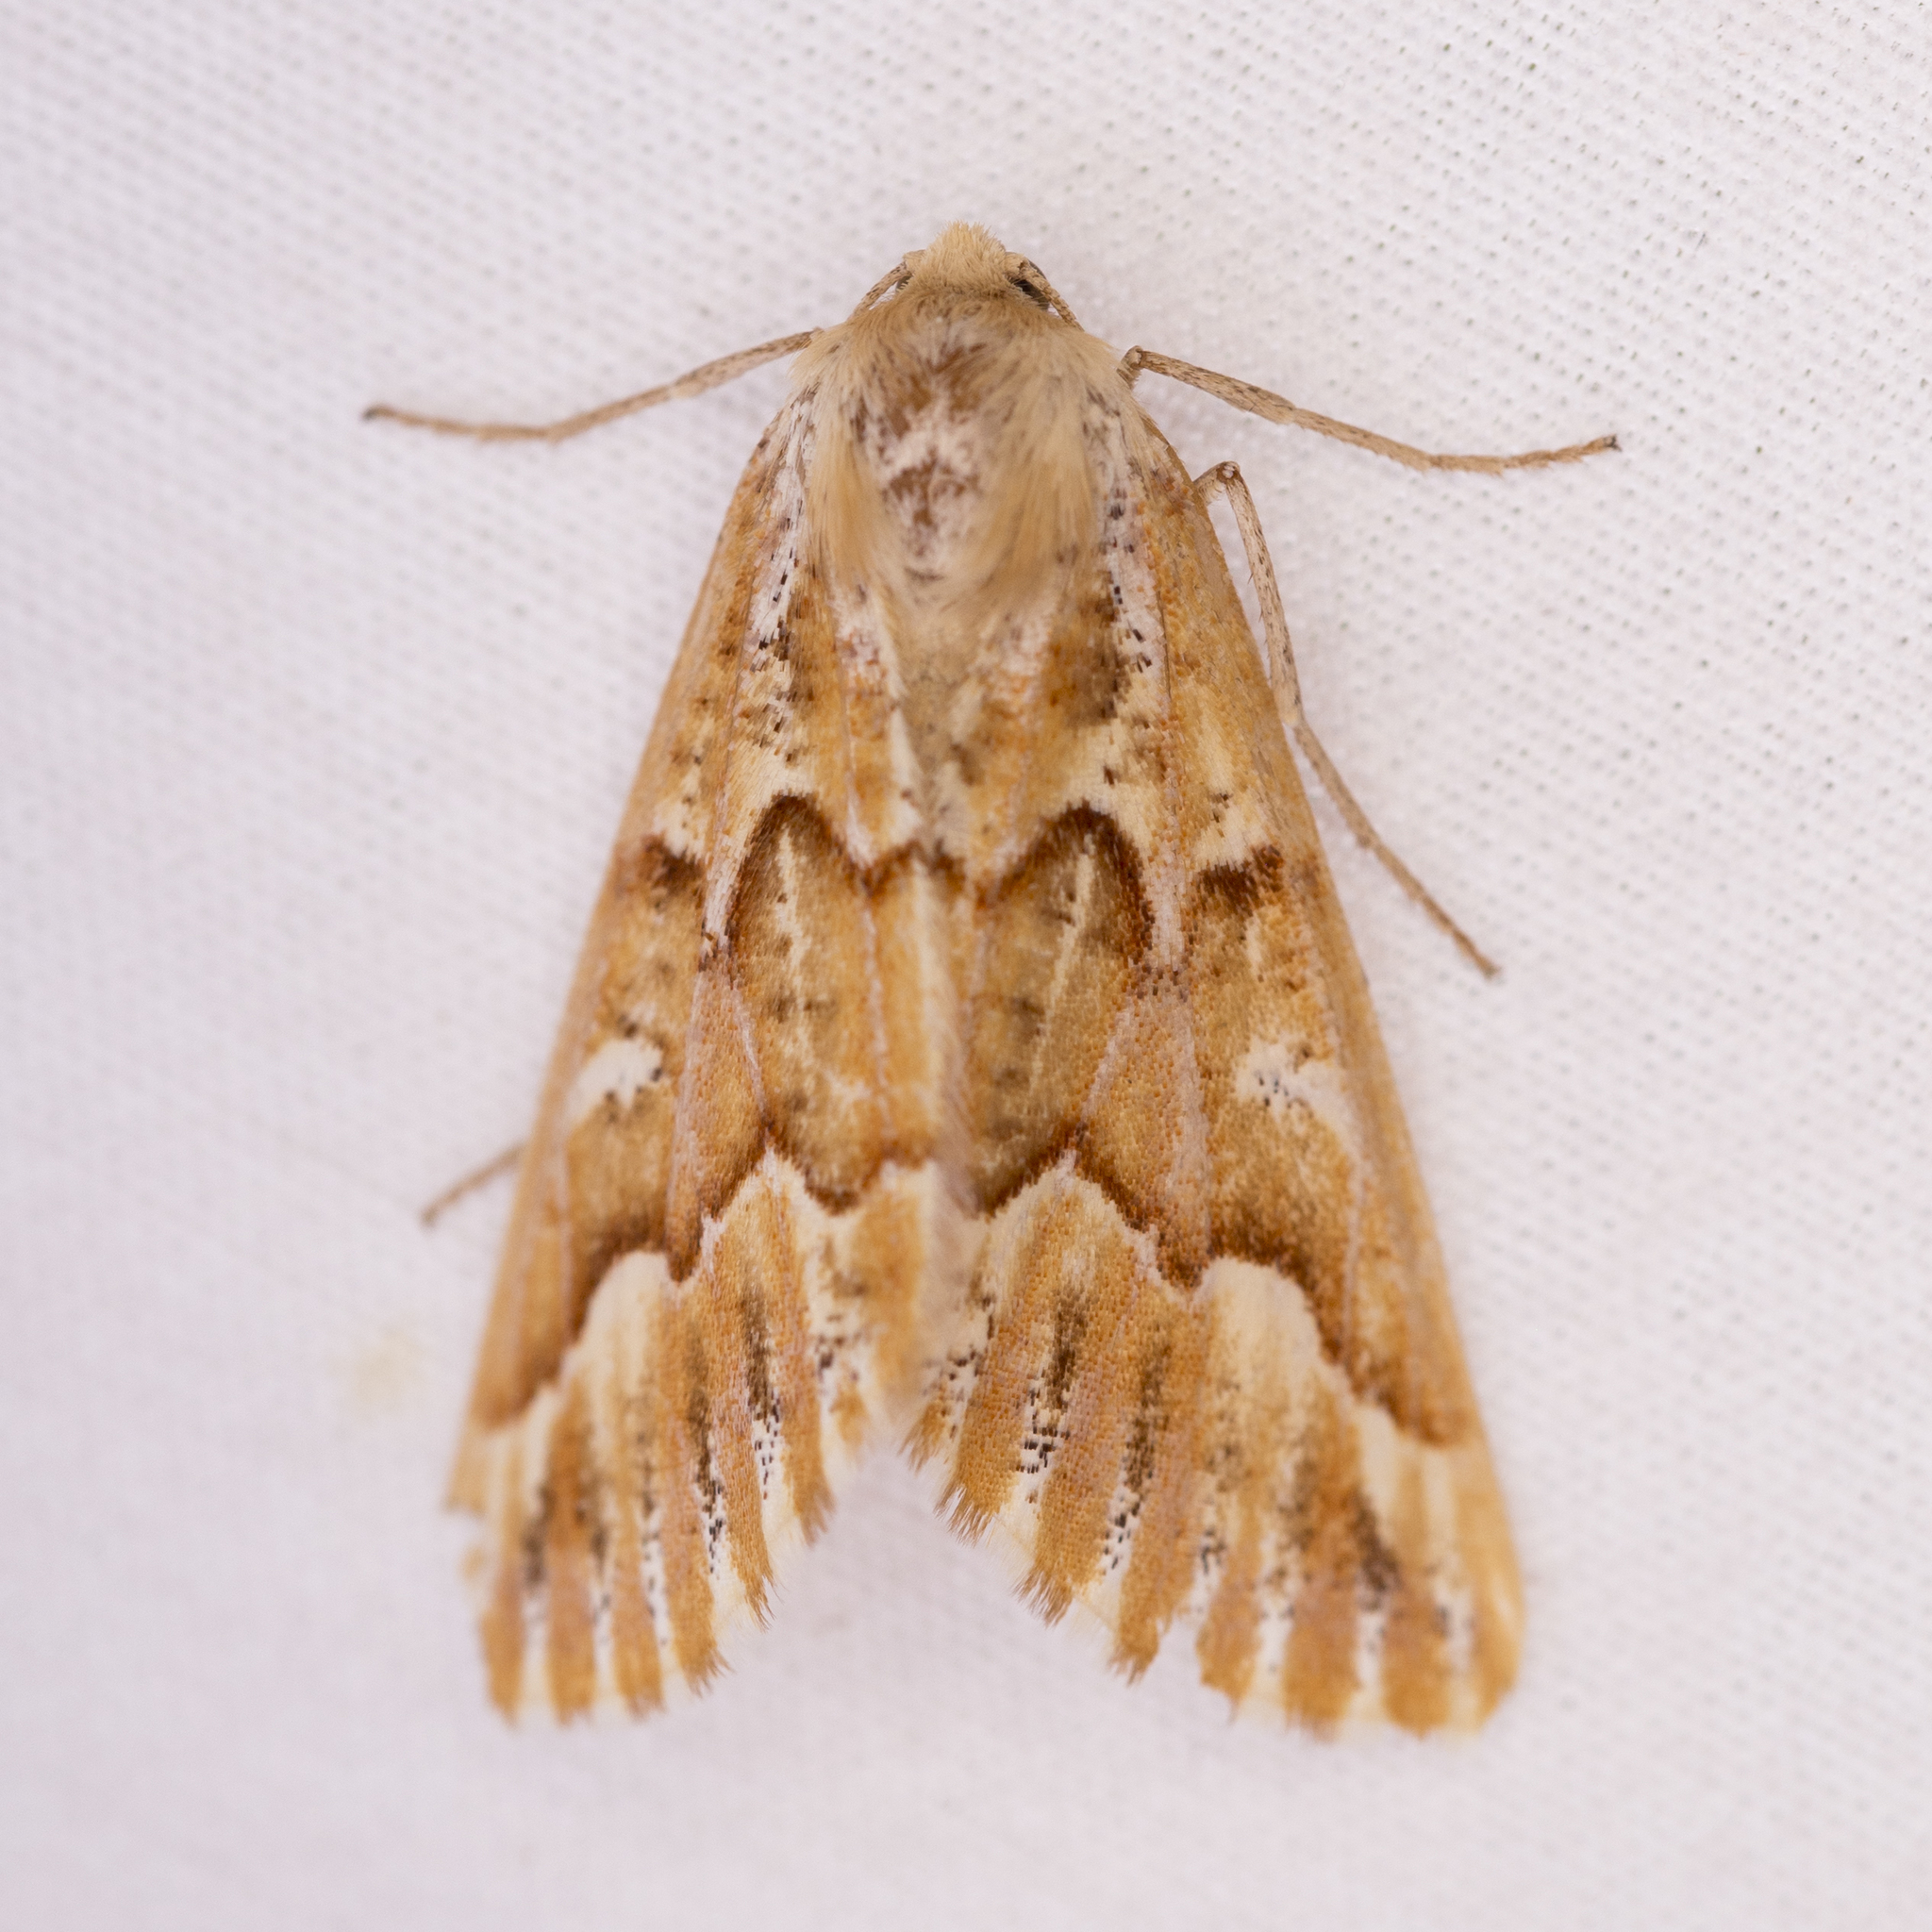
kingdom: Animalia
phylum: Arthropoda
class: Insecta
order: Lepidoptera
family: Geometridae
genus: Caripeta
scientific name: Caripeta aequaliaria
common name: Red girdle moth
